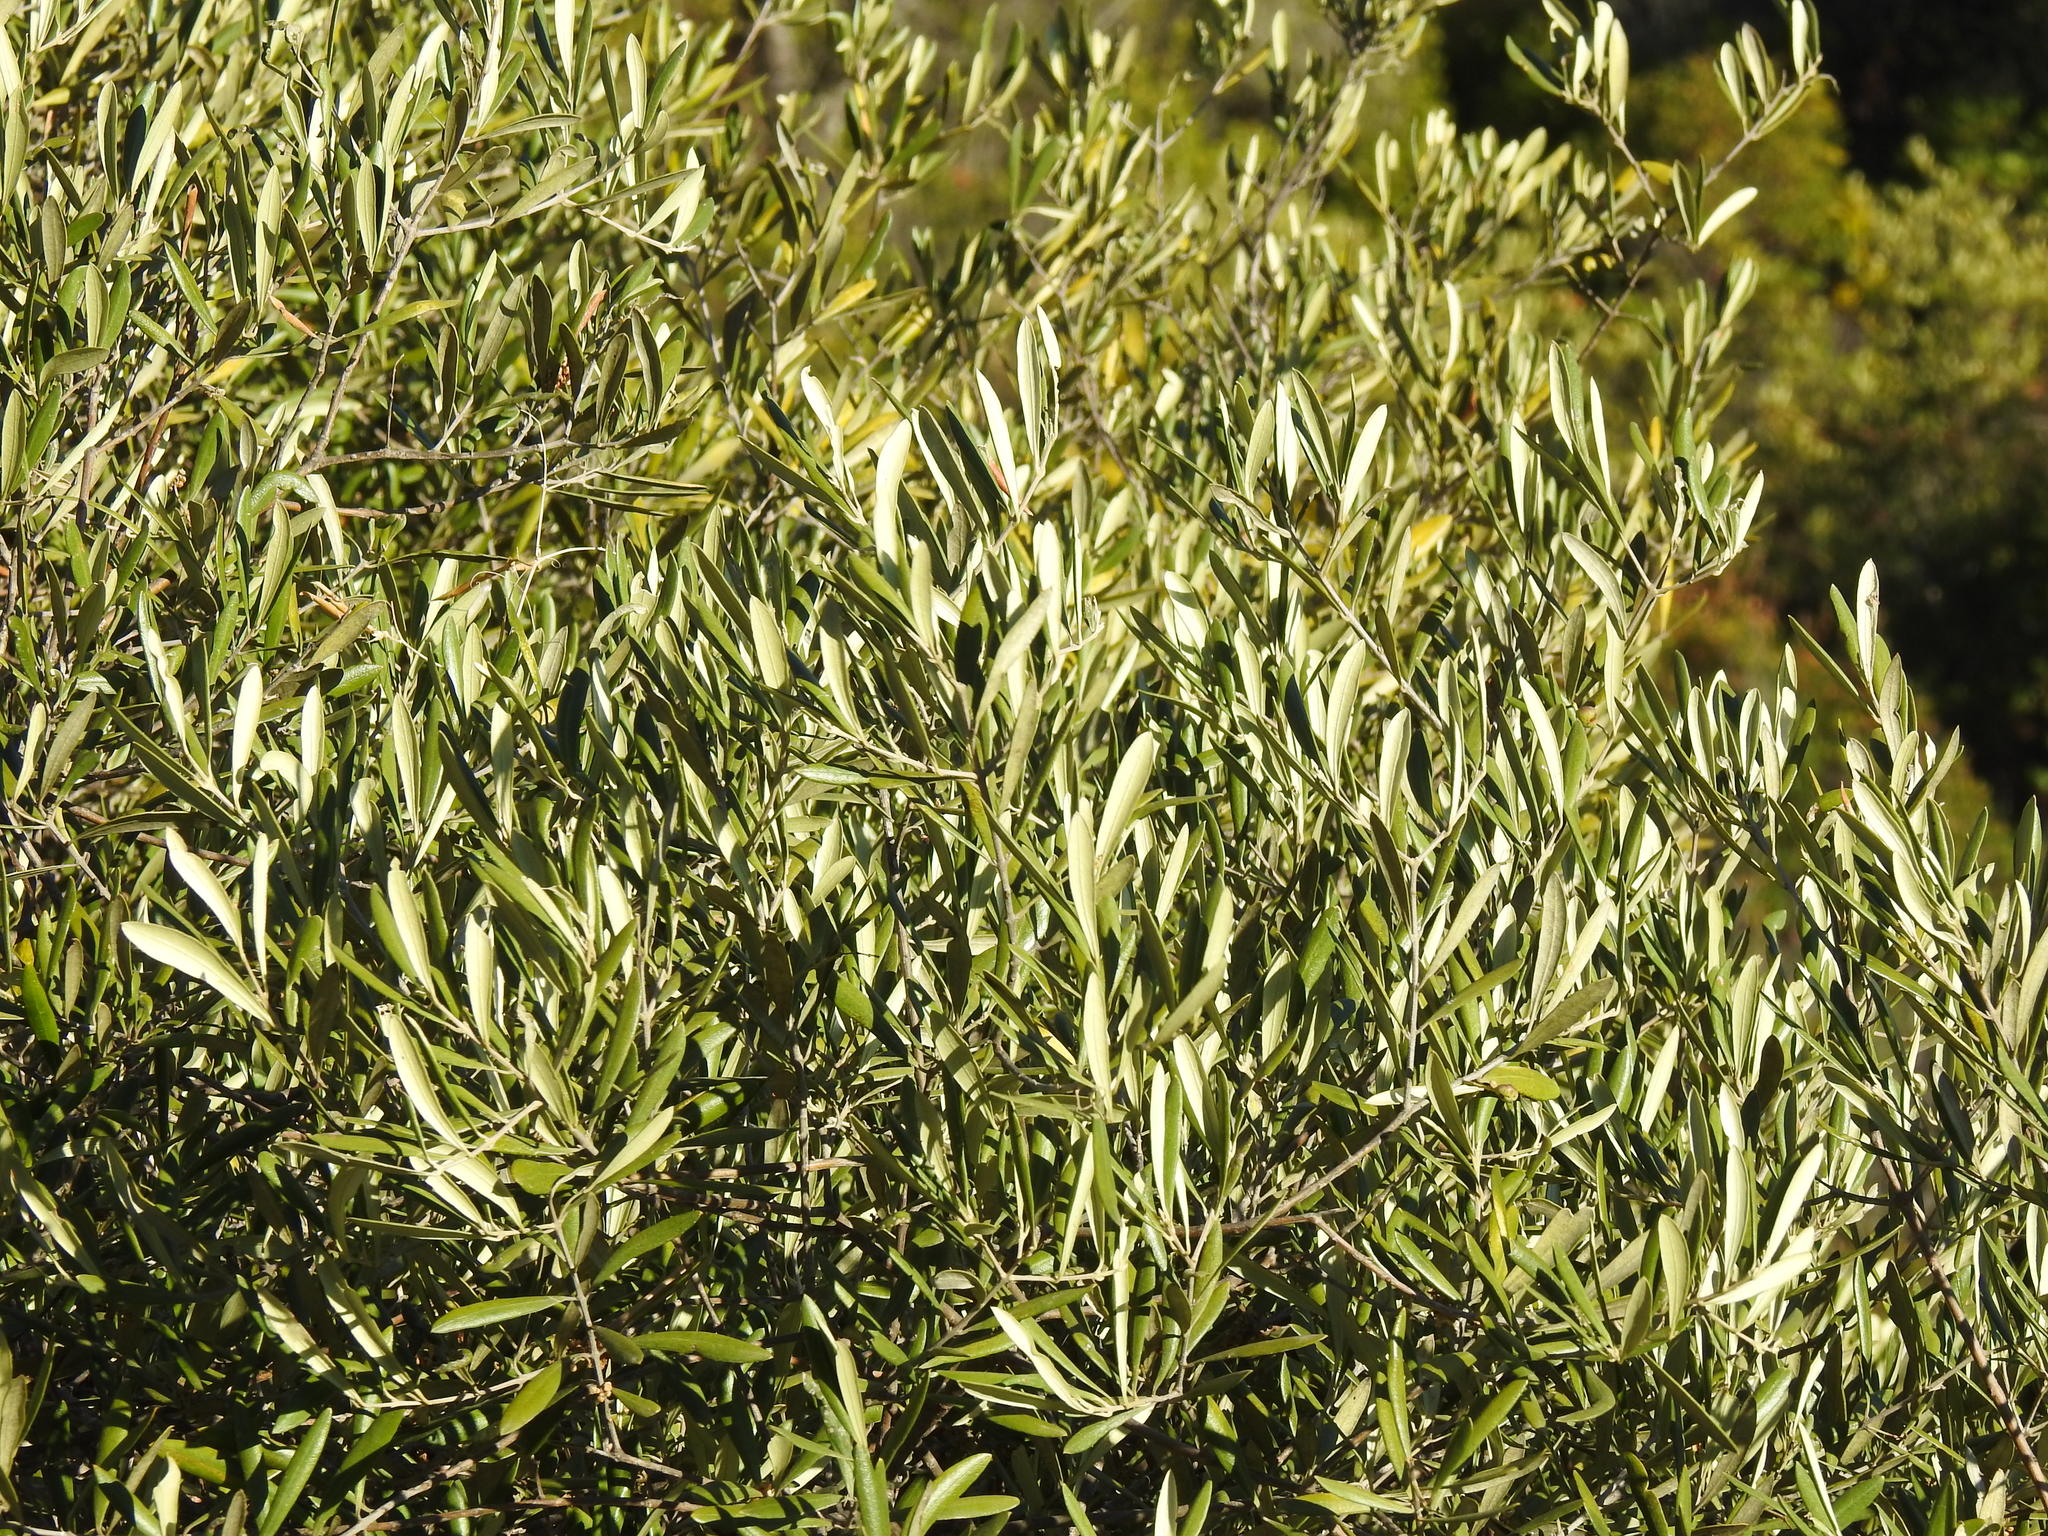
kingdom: Plantae
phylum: Tracheophyta
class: Magnoliopsida
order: Lamiales
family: Oleaceae
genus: Olea
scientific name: Olea europaea
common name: Olive
